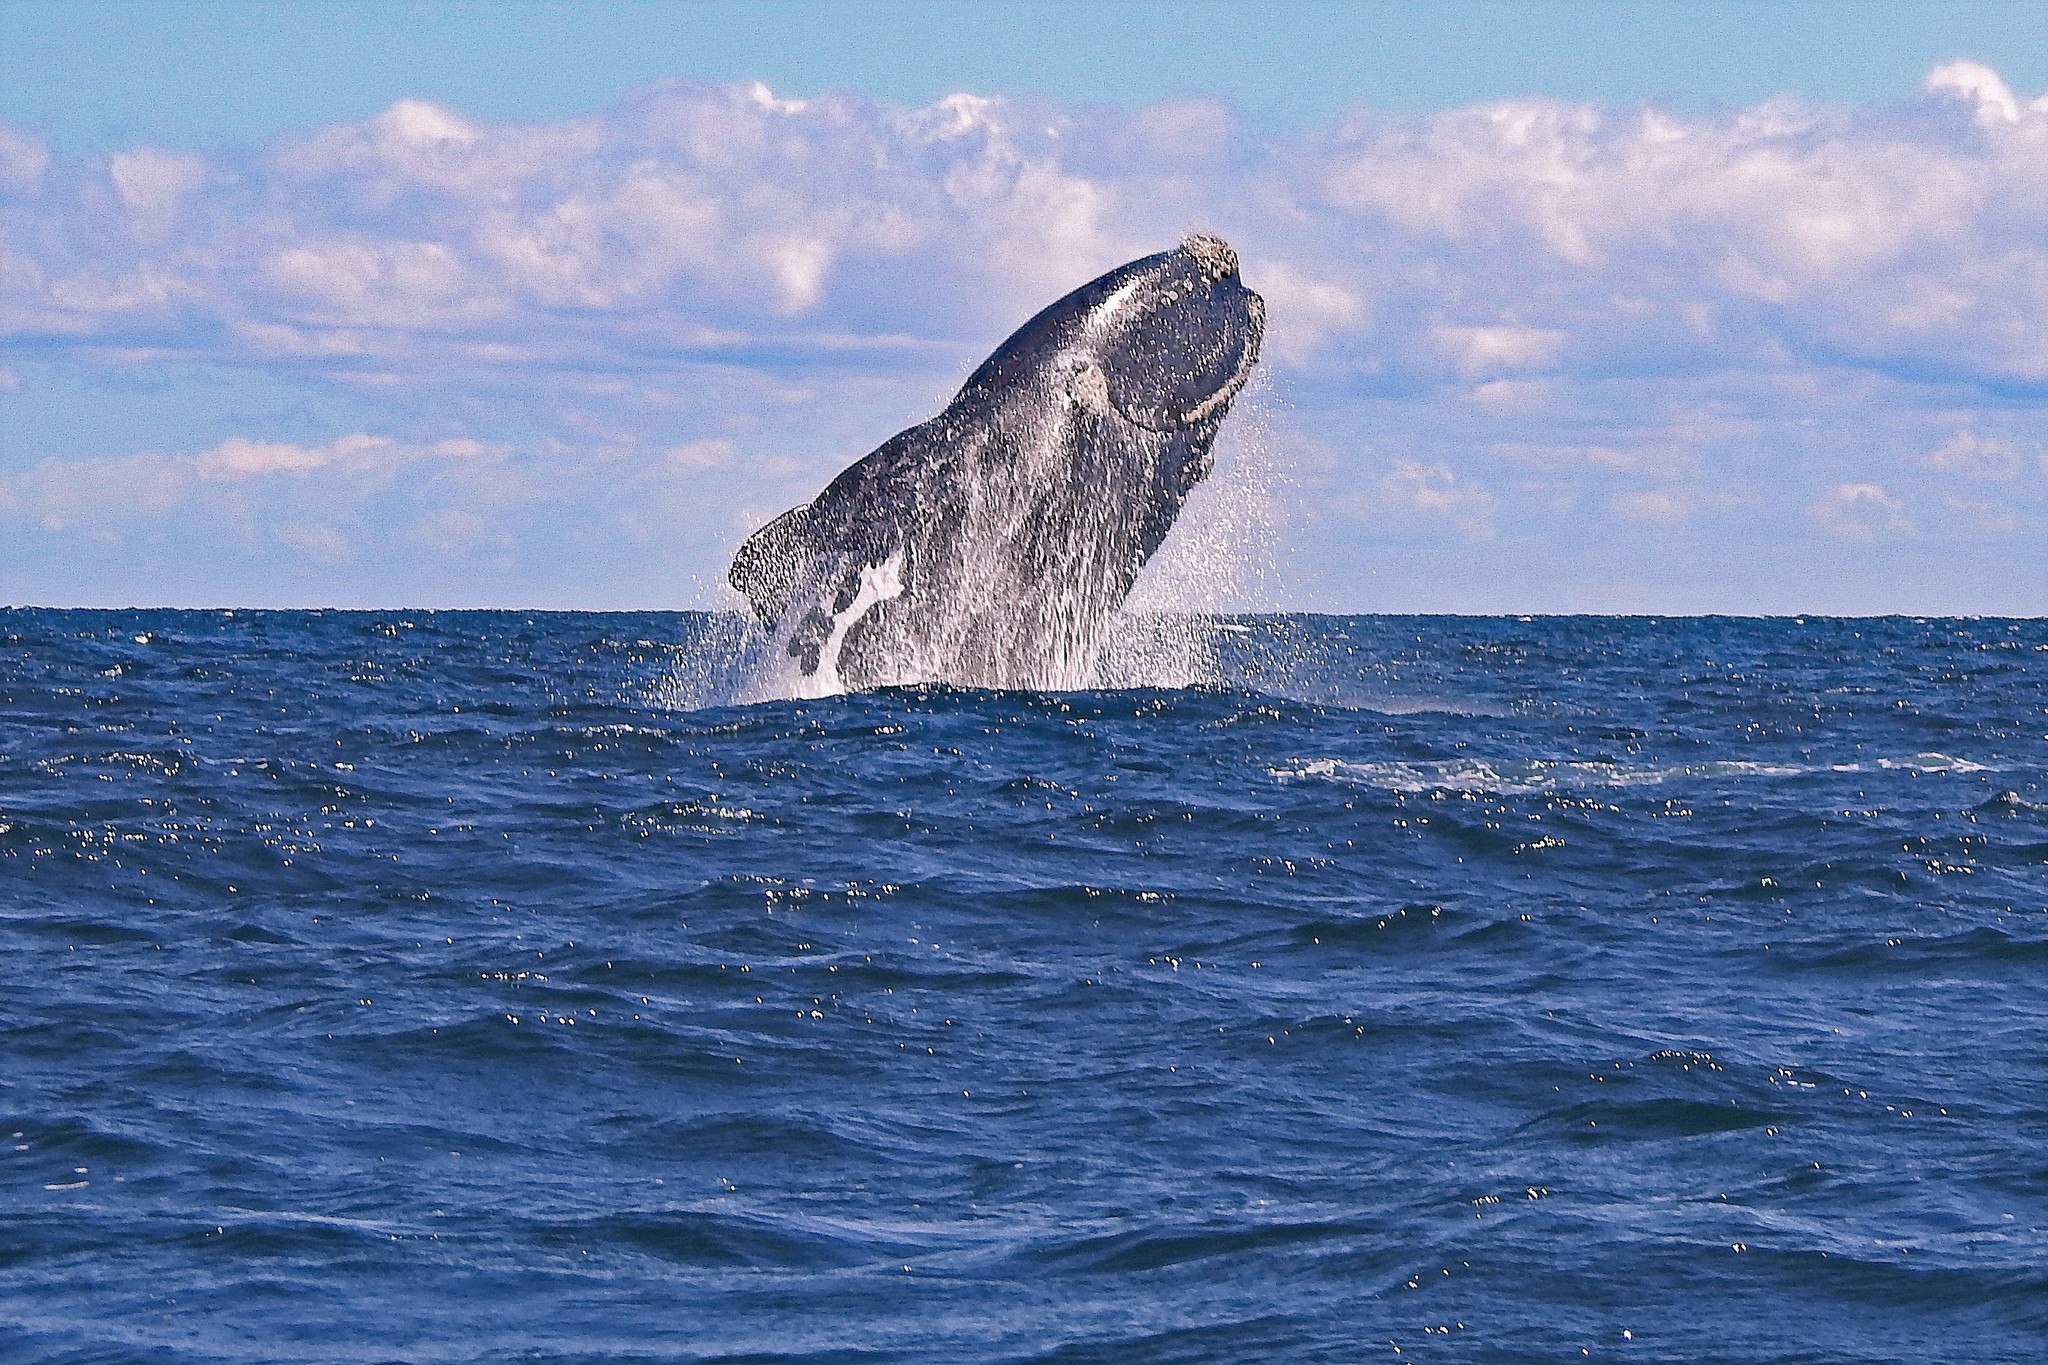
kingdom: Animalia
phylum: Chordata
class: Mammalia
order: Cetacea
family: Balaenidae
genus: Eubalaena
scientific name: Eubalaena australis
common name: Southern right whale
